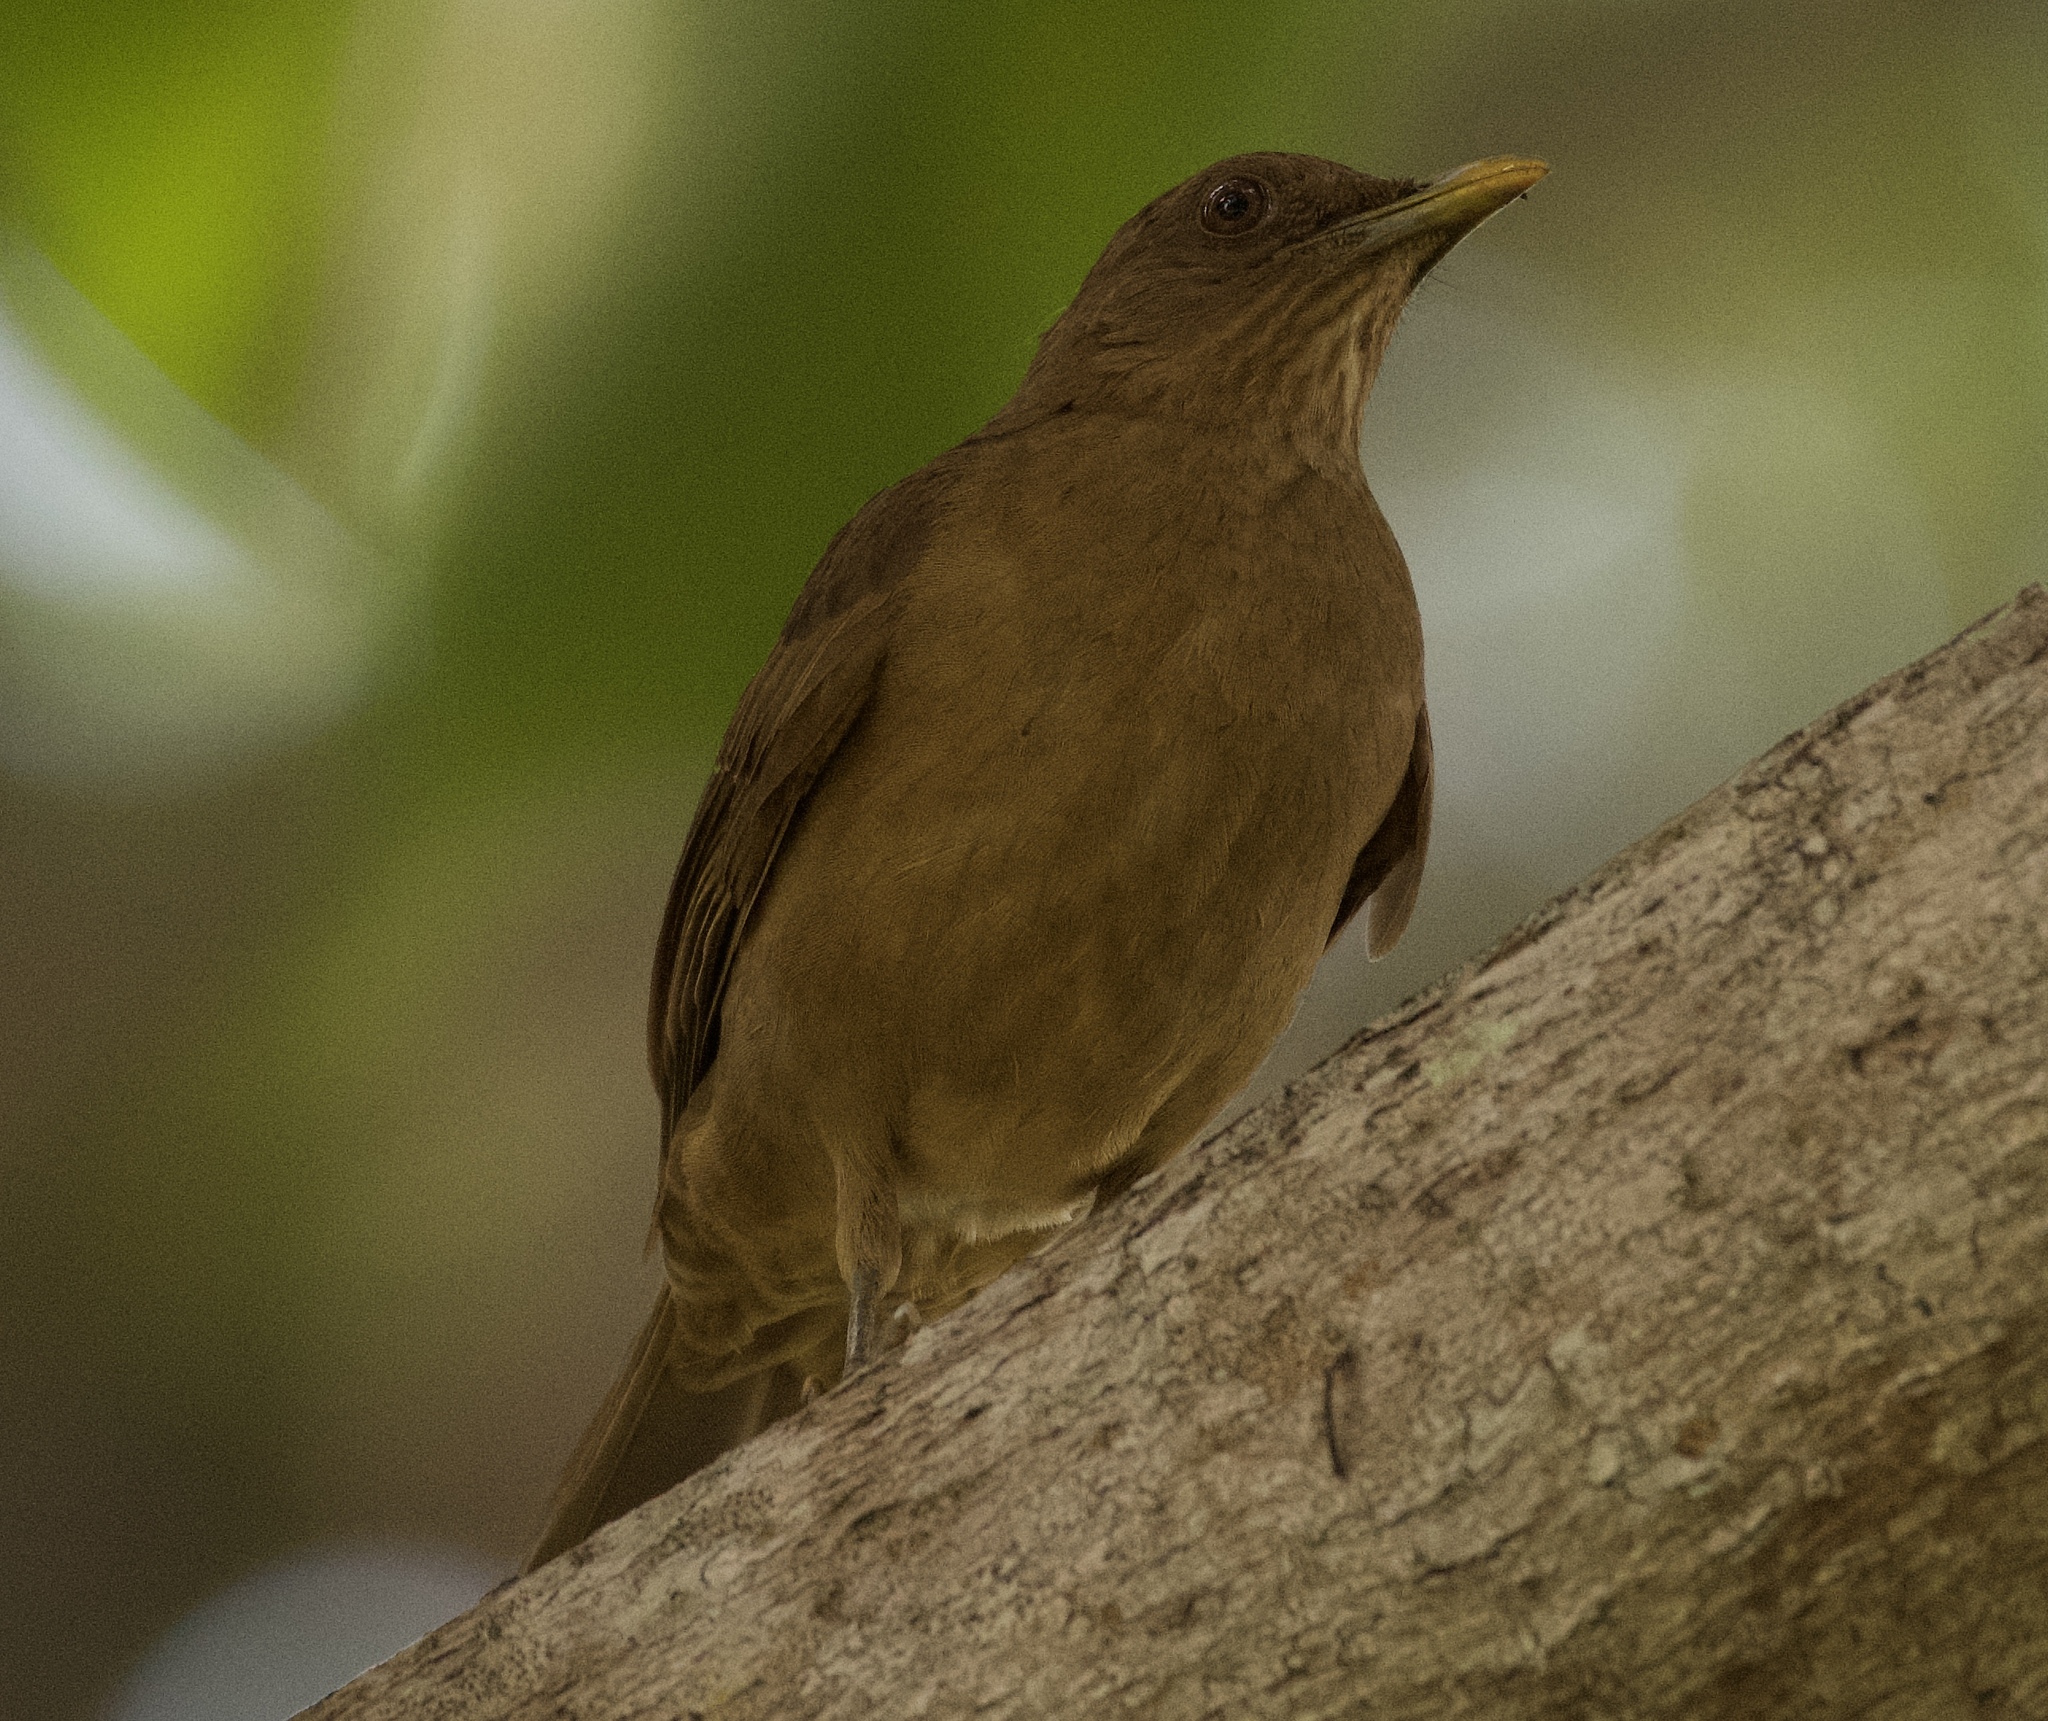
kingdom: Animalia
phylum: Chordata
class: Aves
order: Passeriformes
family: Turdidae
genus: Turdus
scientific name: Turdus grayi
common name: Clay-colored thrush
